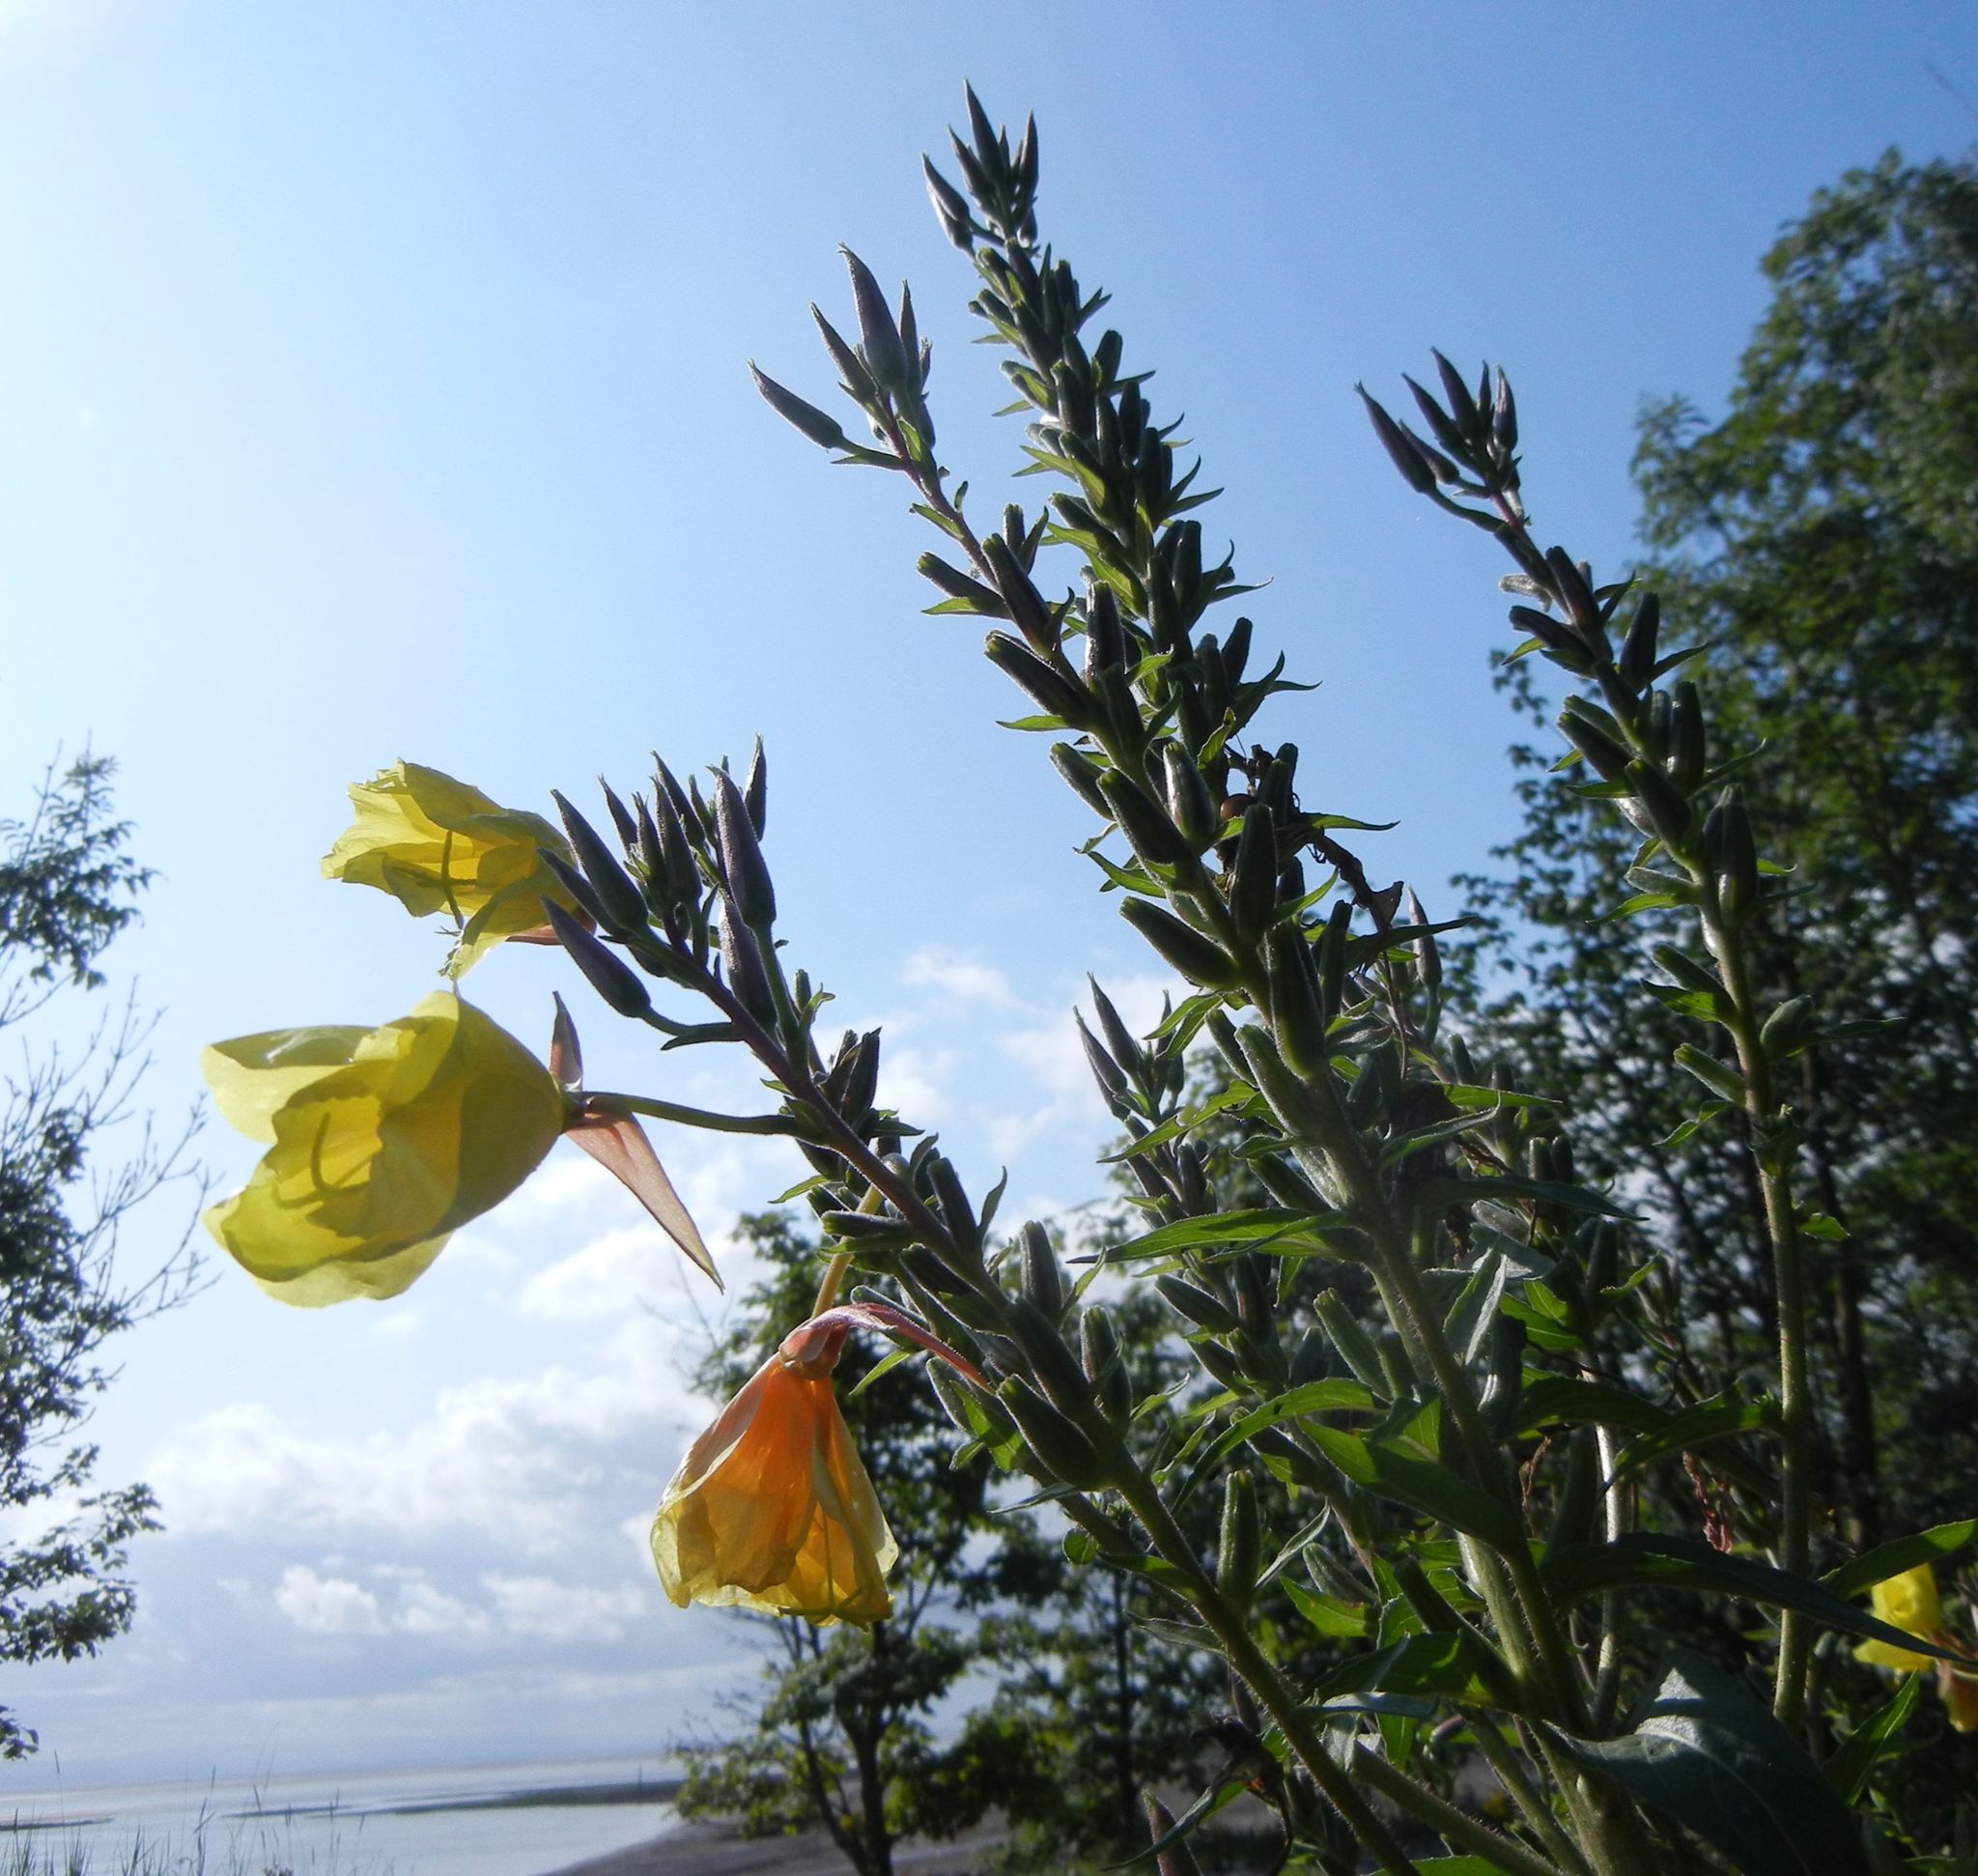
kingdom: Plantae
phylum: Tracheophyta
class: Magnoliopsida
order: Myrtales
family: Onagraceae
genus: Oenothera
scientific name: Oenothera glazioviana
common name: Large-flowered evening-primrose
